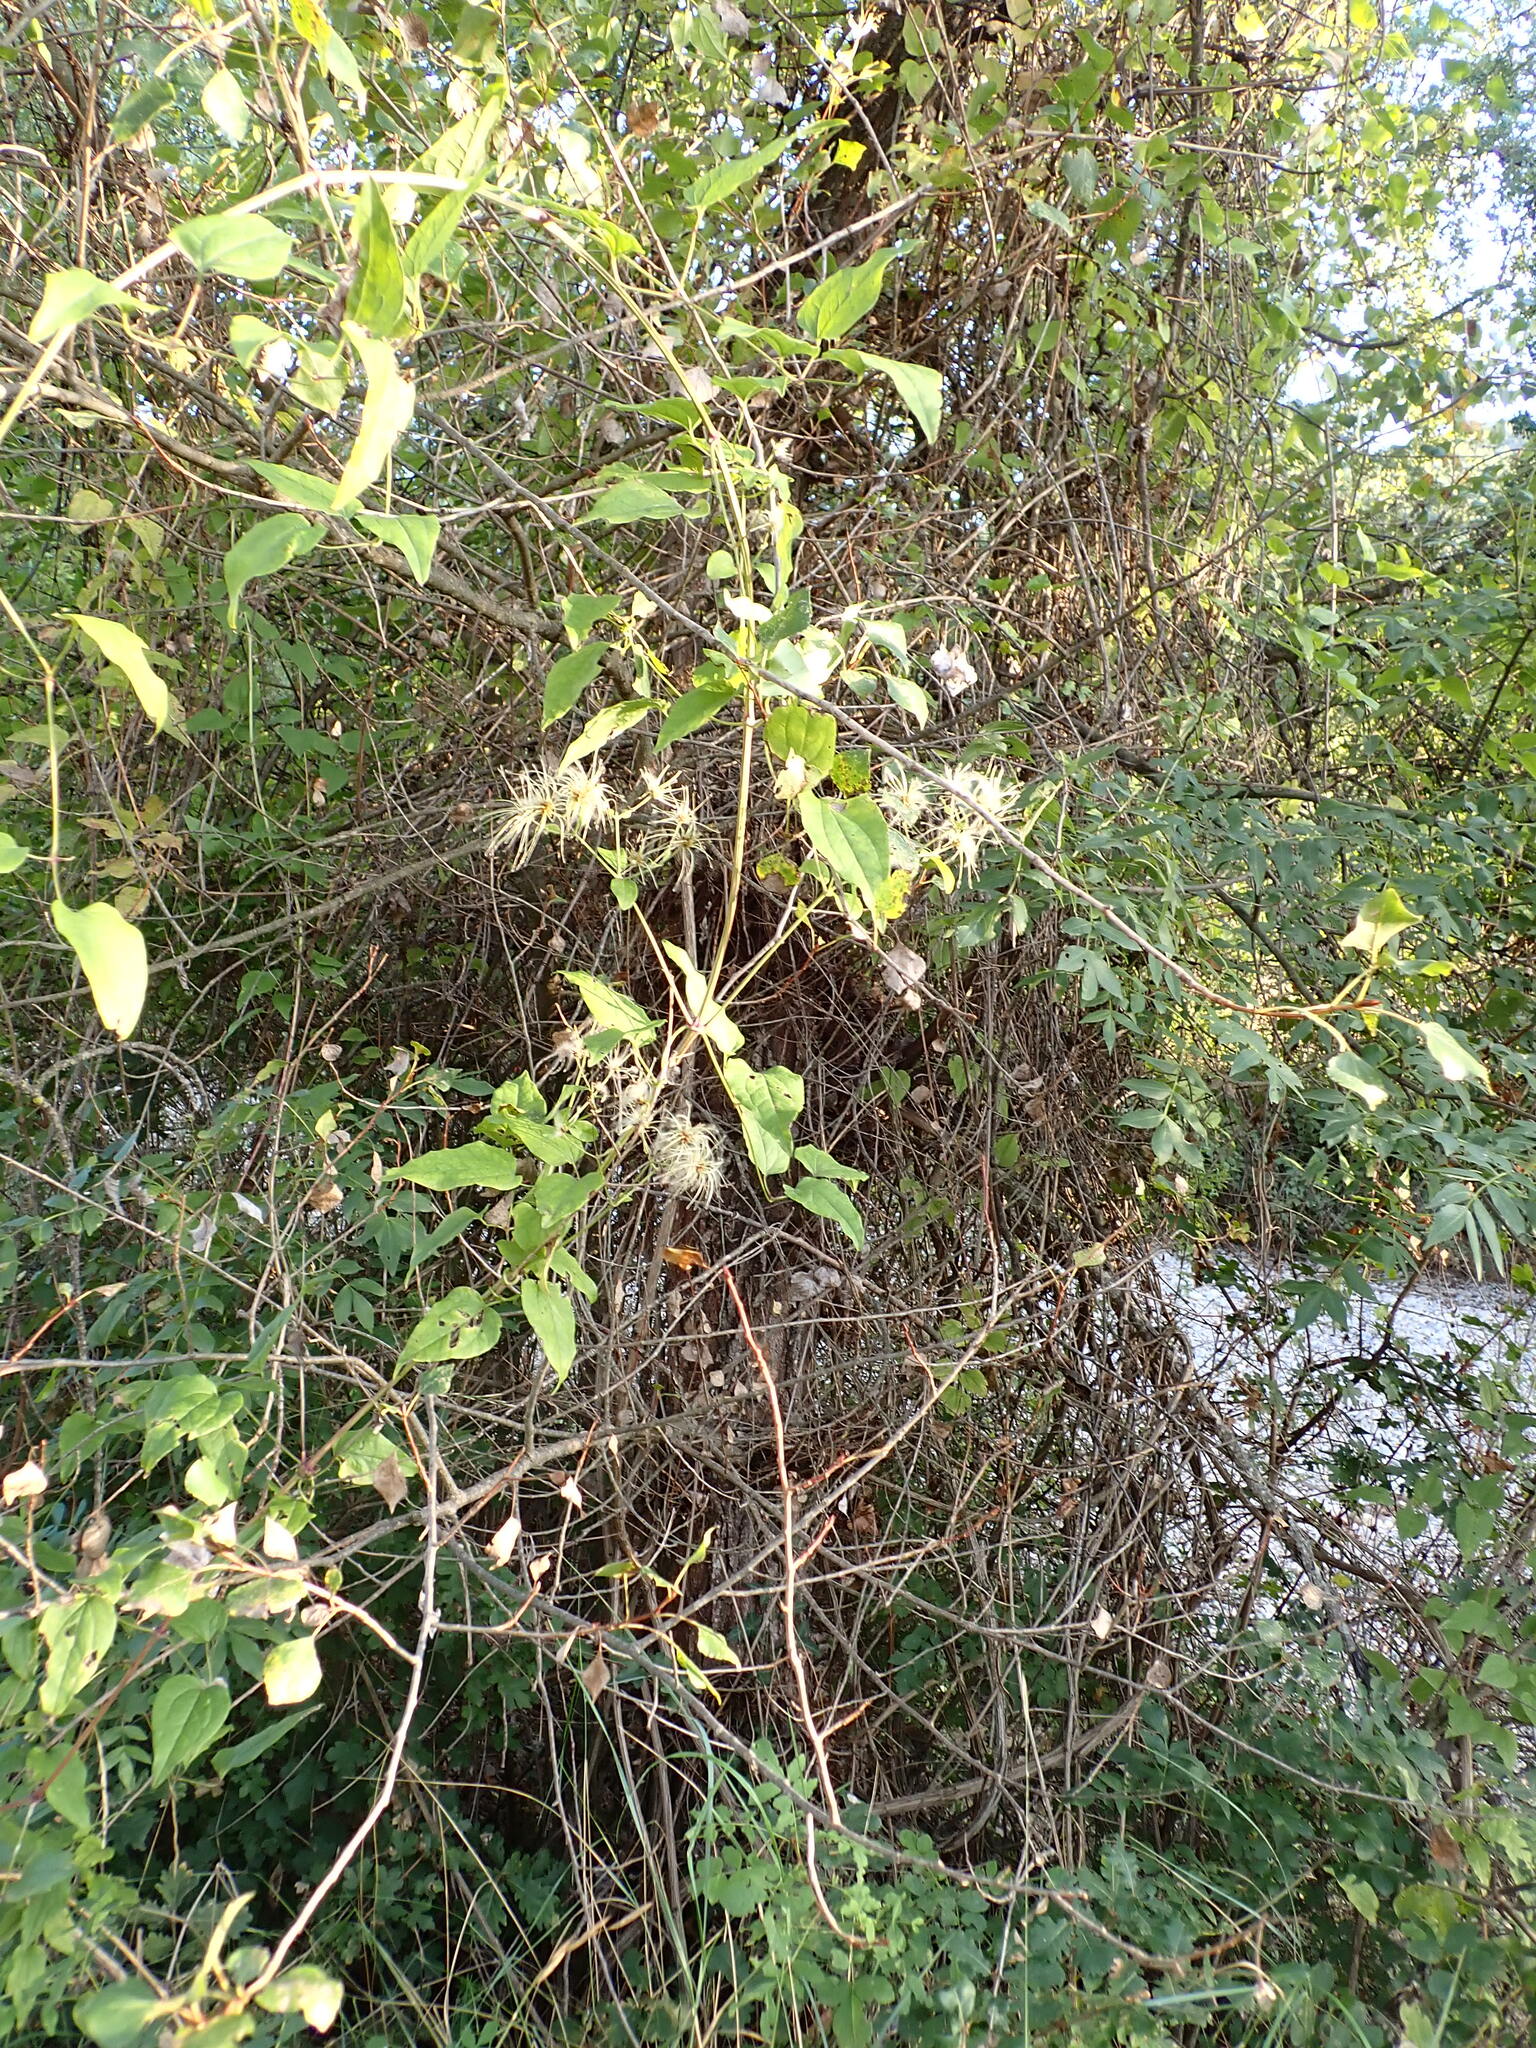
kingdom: Plantae
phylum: Tracheophyta
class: Magnoliopsida
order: Ranunculales
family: Ranunculaceae
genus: Clematis
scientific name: Clematis vitalba
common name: Evergreen clematis
